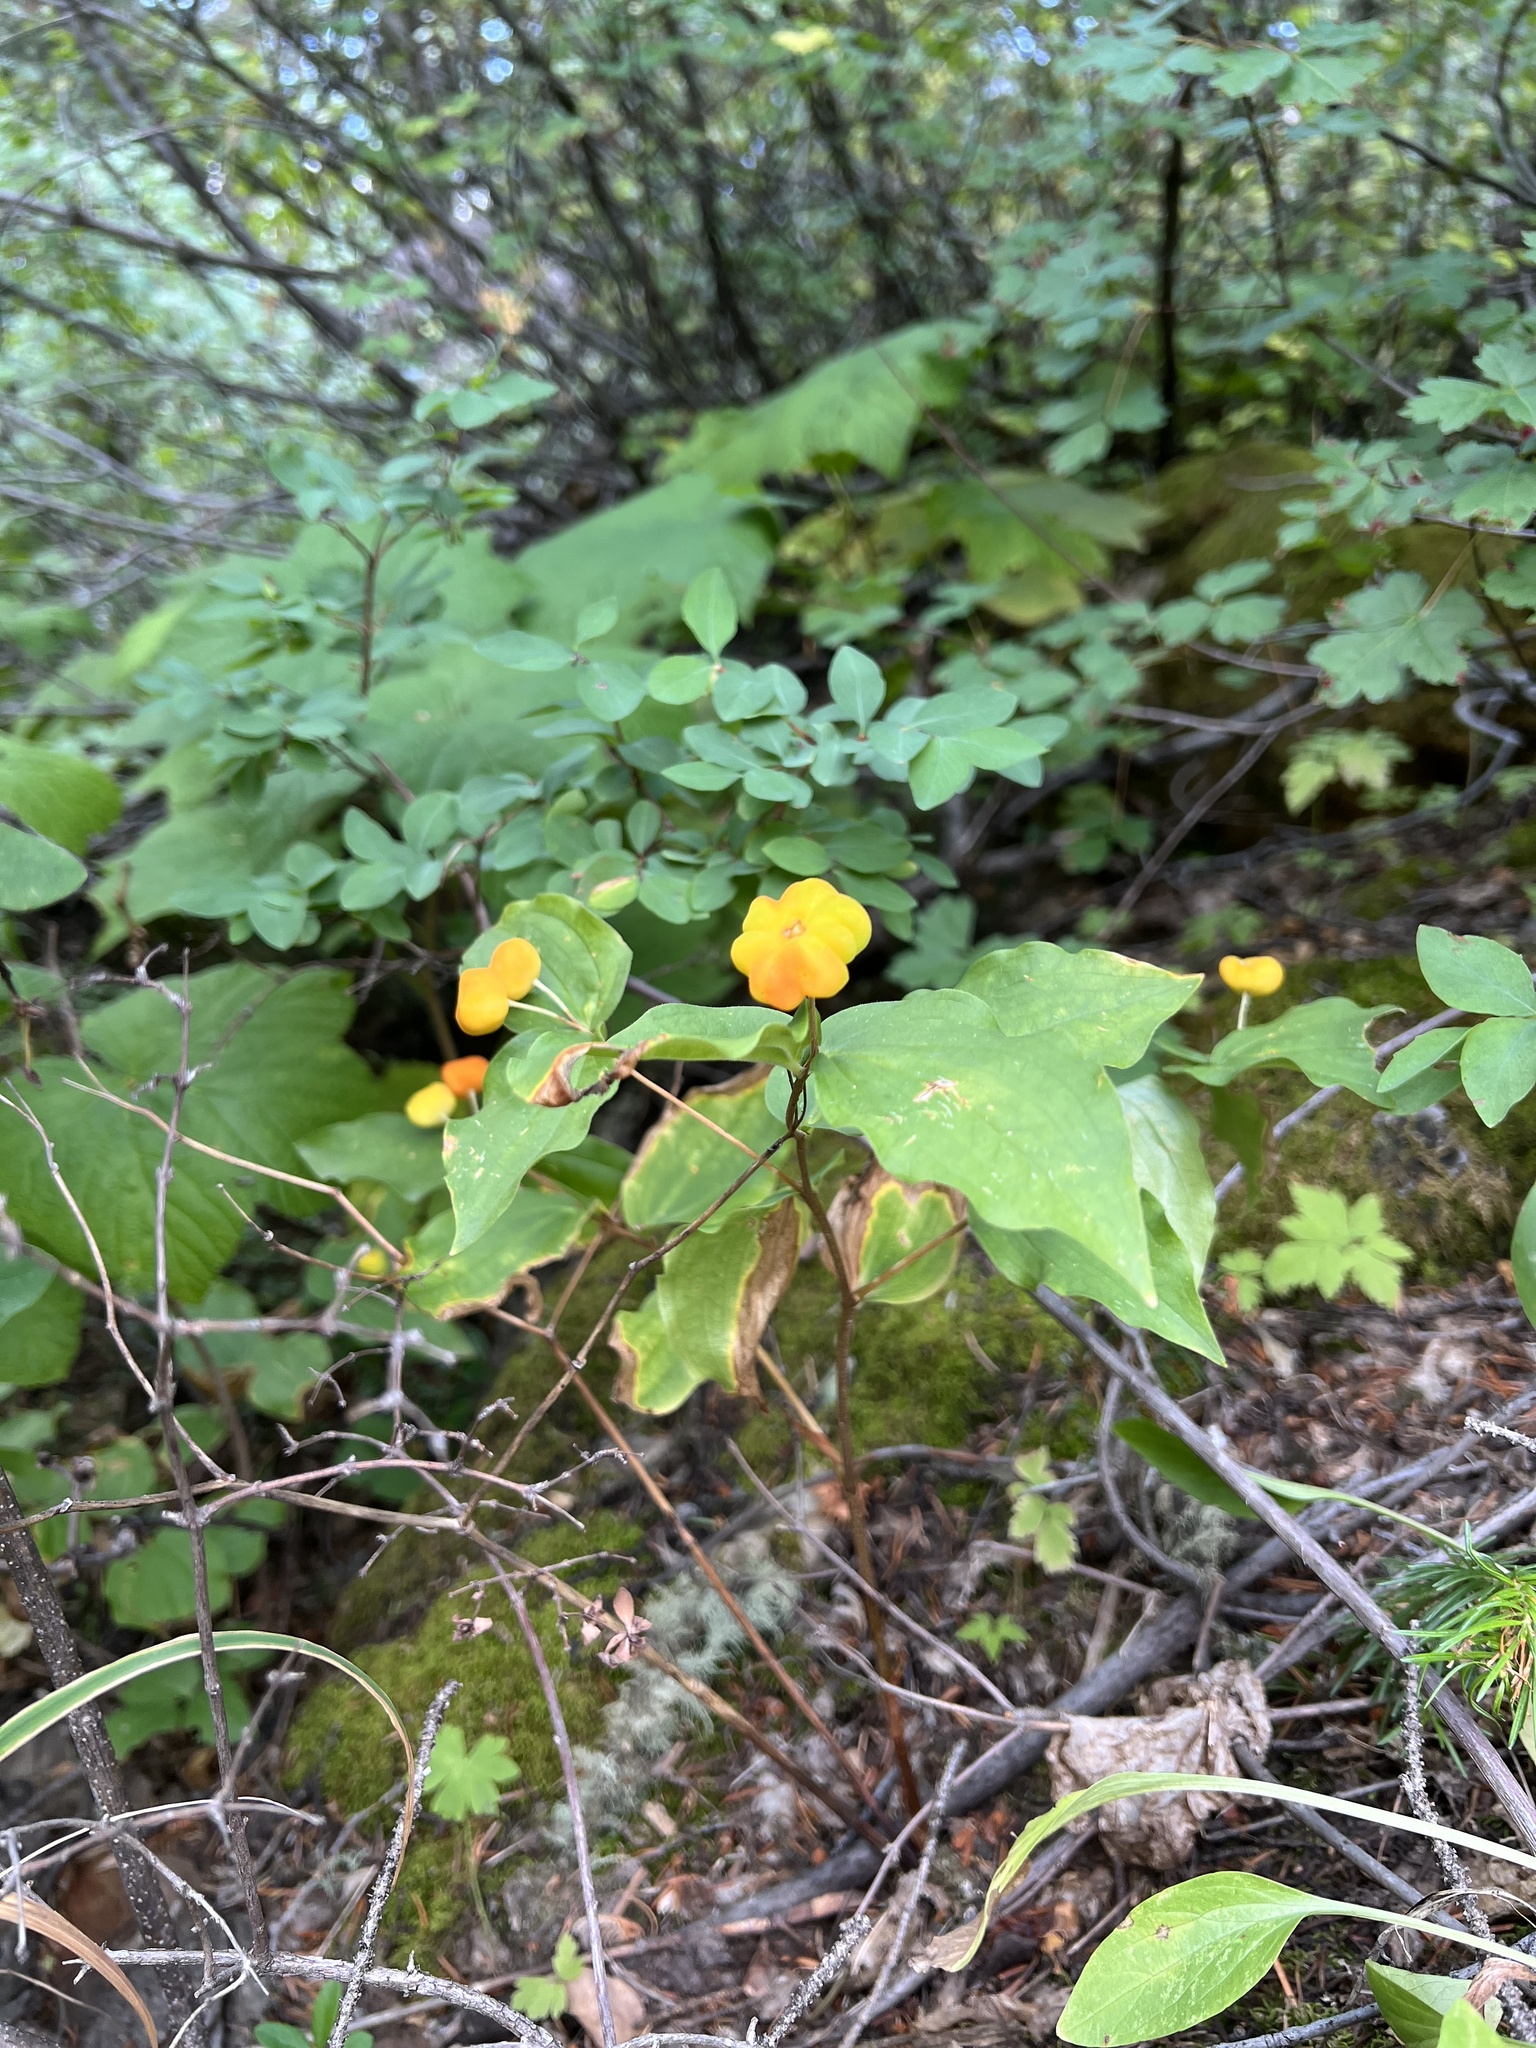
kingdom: Plantae
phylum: Tracheophyta
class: Liliopsida
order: Liliales
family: Liliaceae
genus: Prosartes
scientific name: Prosartes trachycarpa
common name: Rough-fruit fairy-bells
